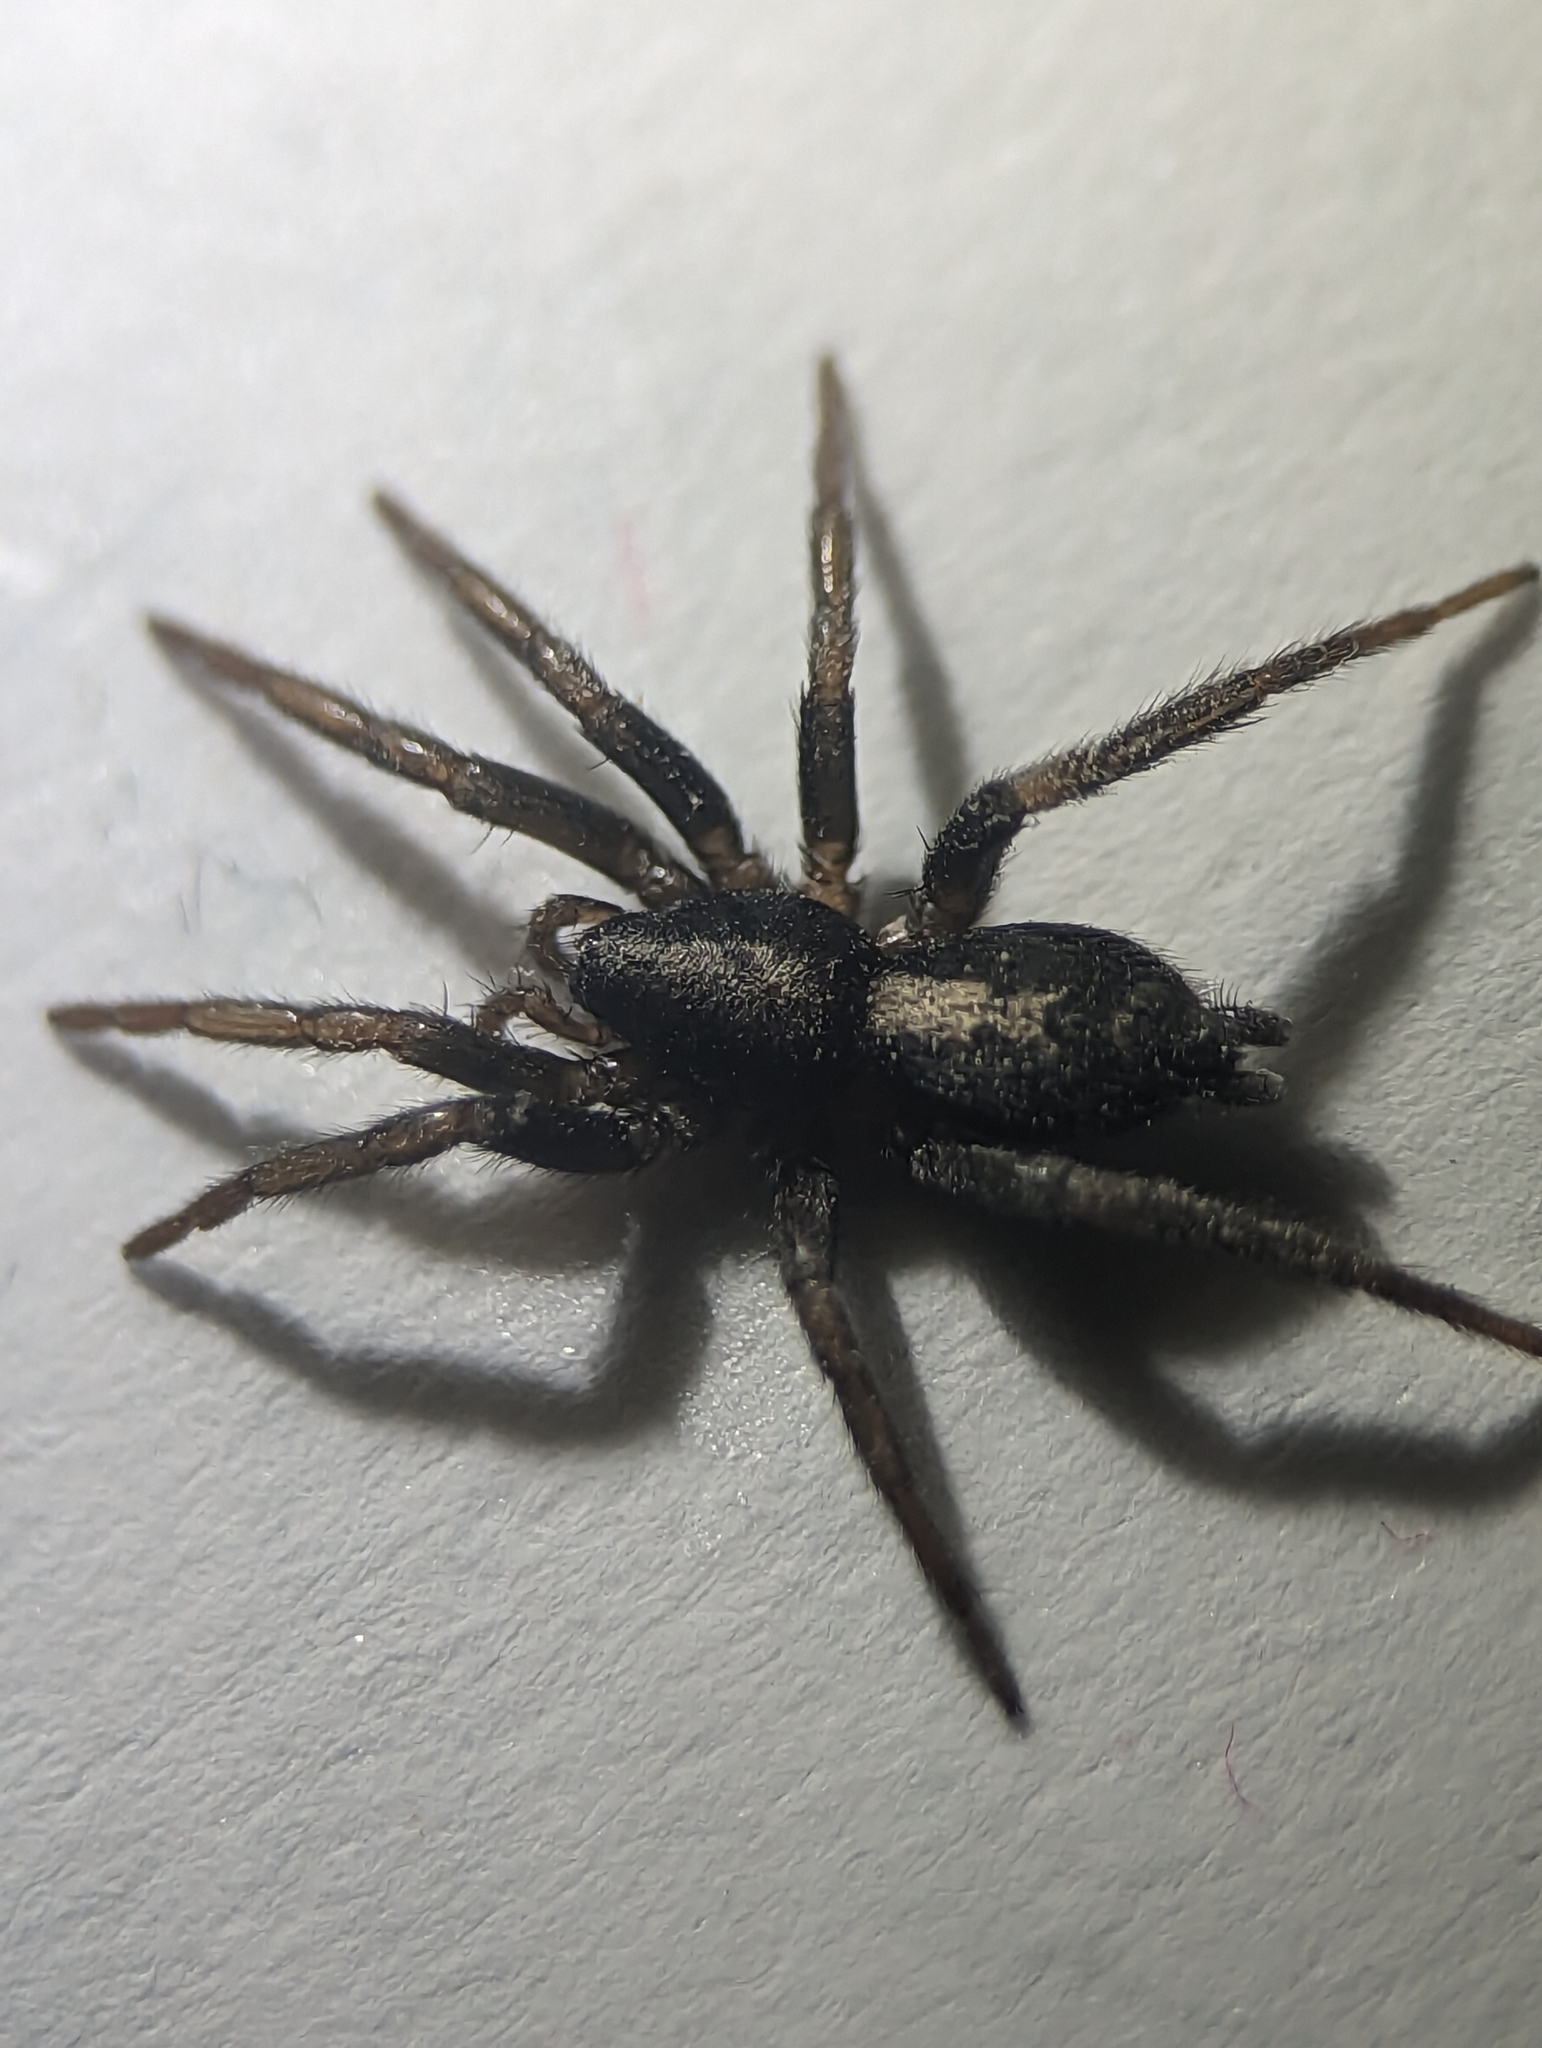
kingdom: Animalia
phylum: Arthropoda
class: Arachnida
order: Araneae
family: Gnaphosidae
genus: Herpyllus
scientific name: Herpyllus ecclesiasticus
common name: Eastern parson spider
